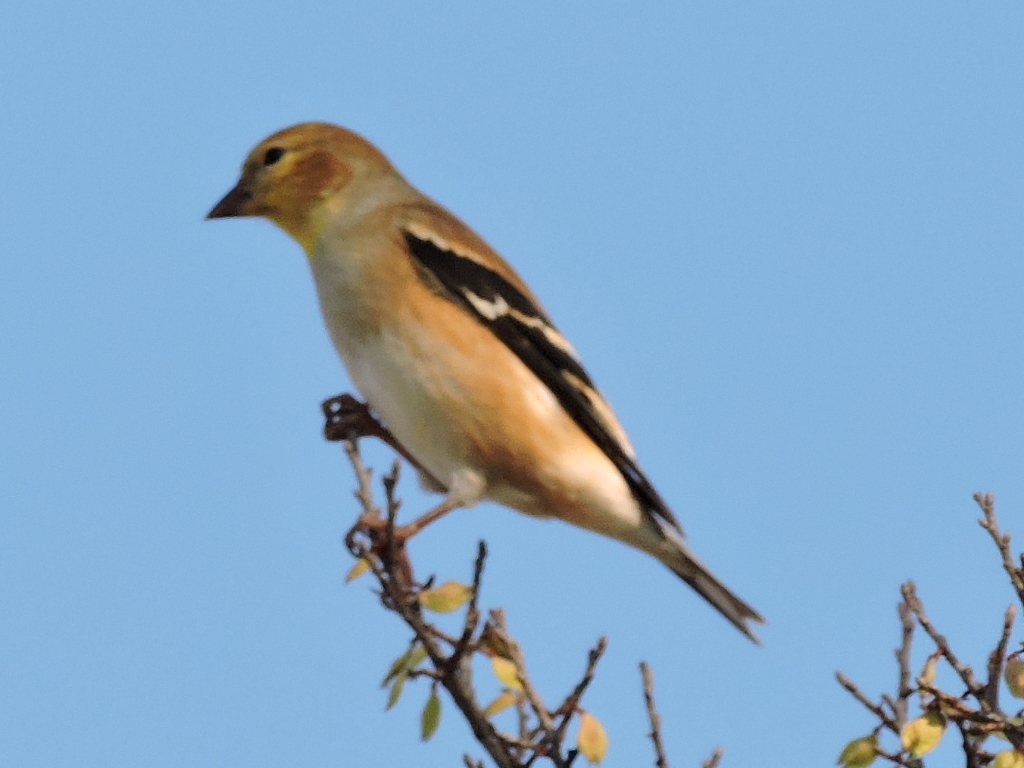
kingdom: Animalia
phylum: Chordata
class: Aves
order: Passeriformes
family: Fringillidae
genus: Spinus
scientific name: Spinus tristis
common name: American goldfinch
